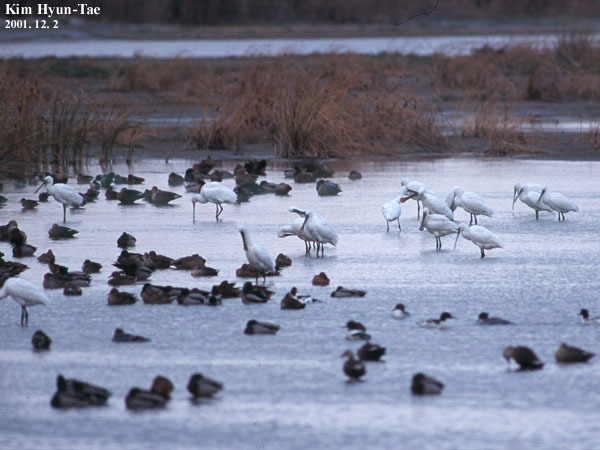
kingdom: Animalia
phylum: Chordata
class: Aves
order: Pelecaniformes
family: Threskiornithidae
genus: Platalea
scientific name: Platalea leucorodia
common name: Eurasian spoonbill
